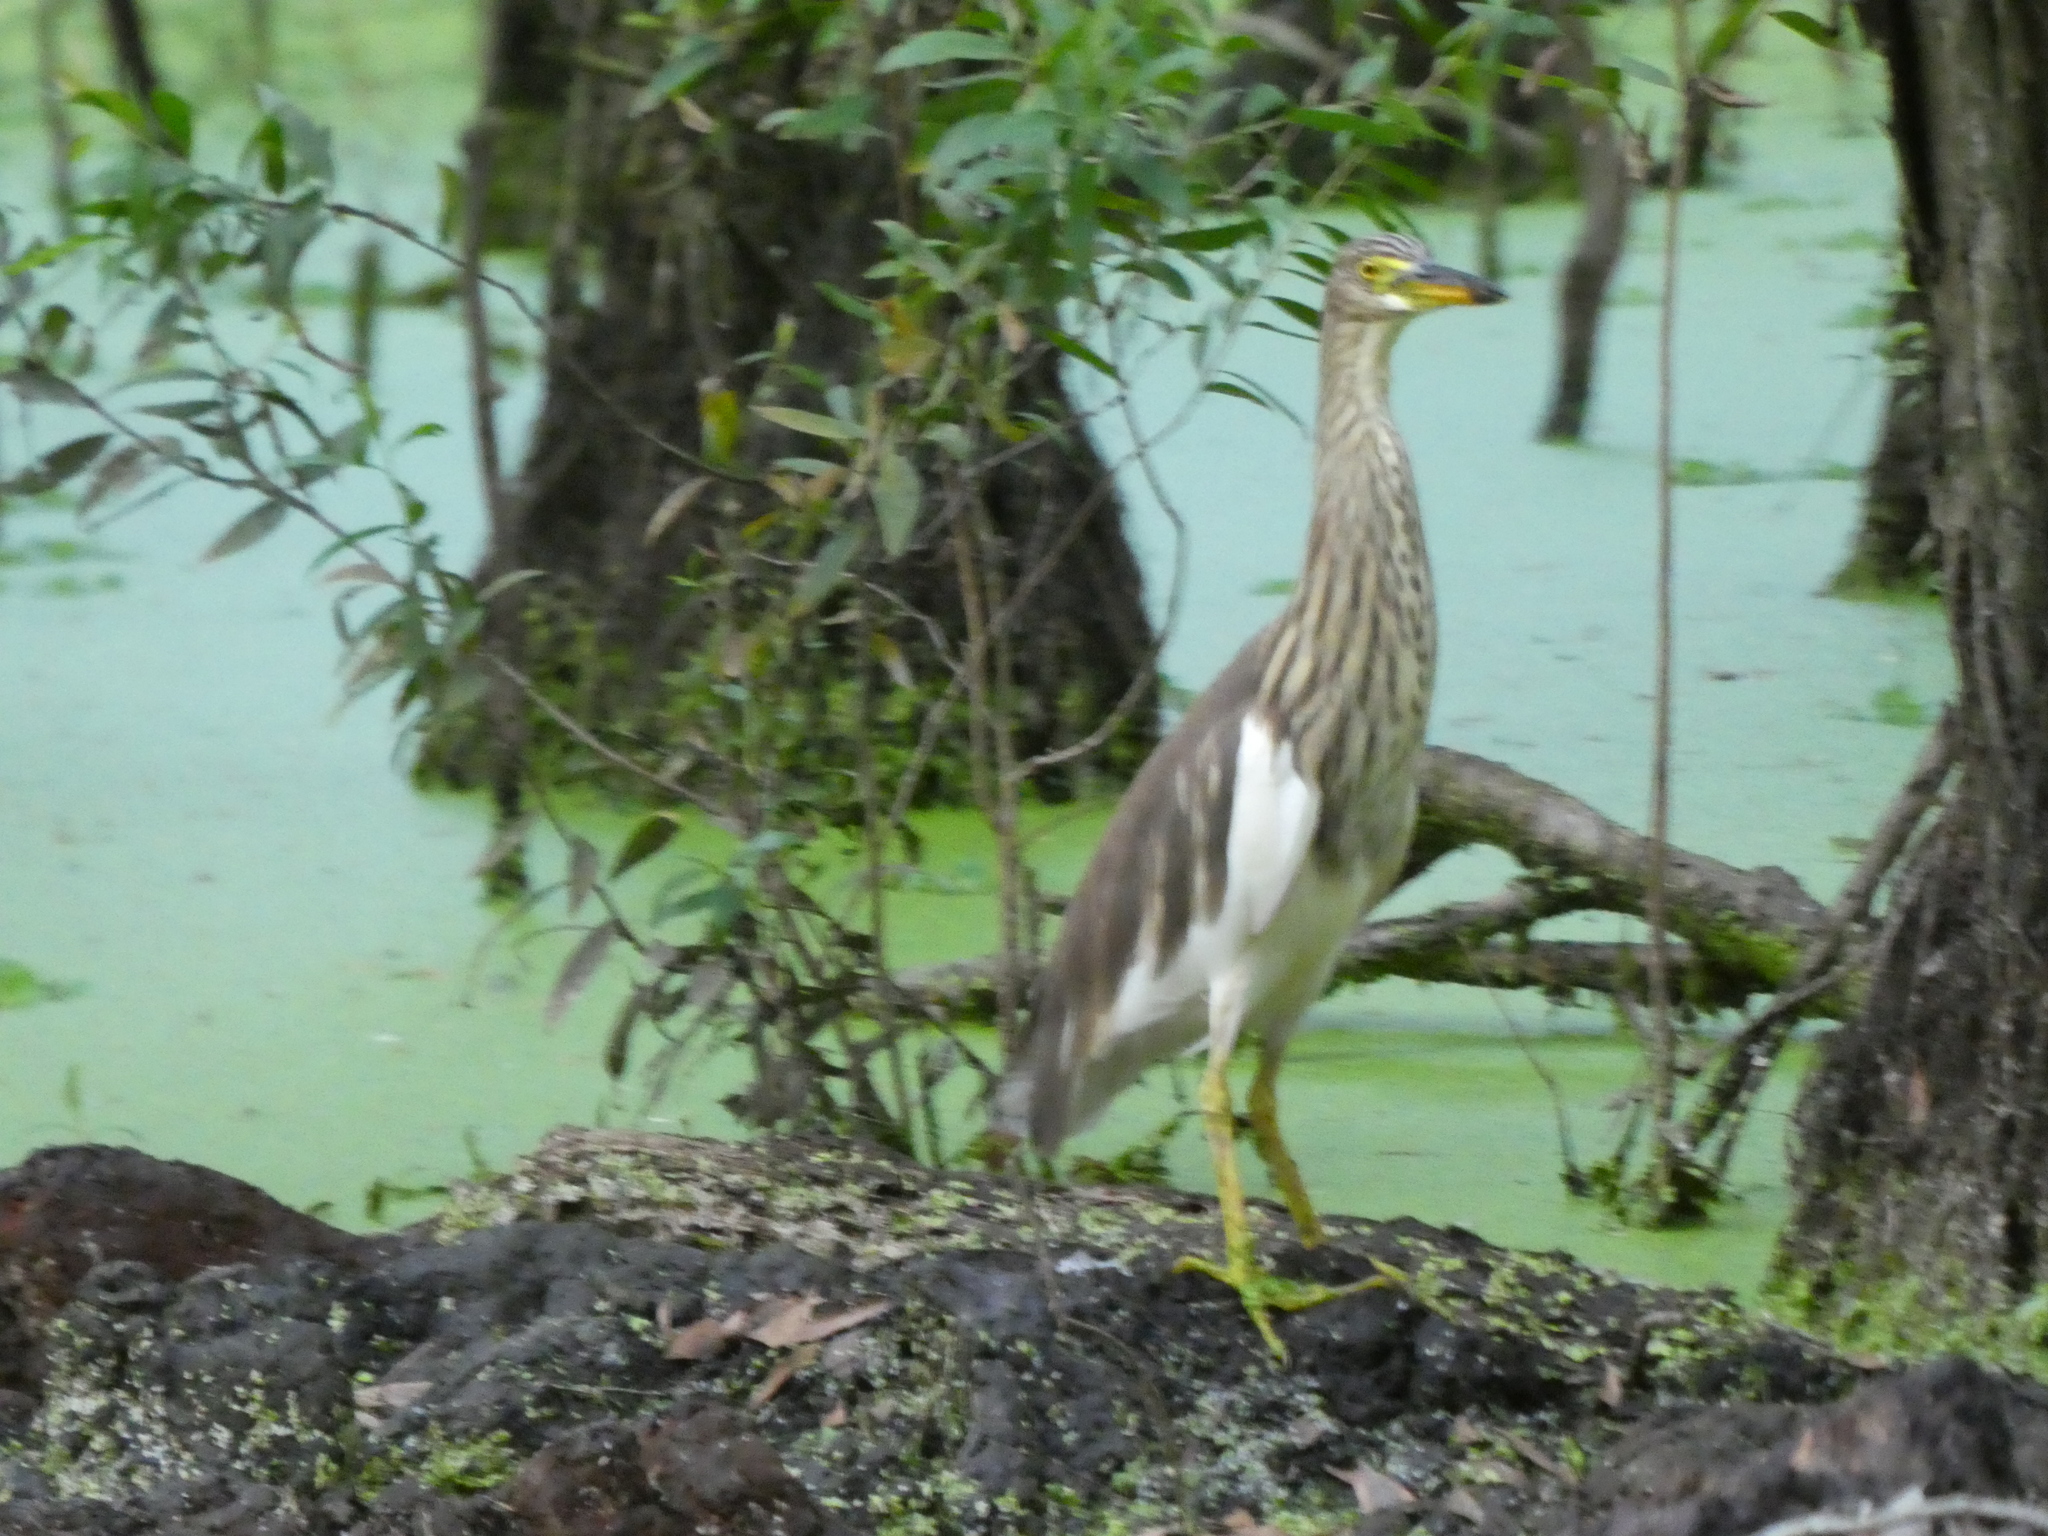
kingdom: Animalia
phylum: Chordata
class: Aves
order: Pelecaniformes
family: Ardeidae
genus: Ardeola
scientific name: Ardeola
